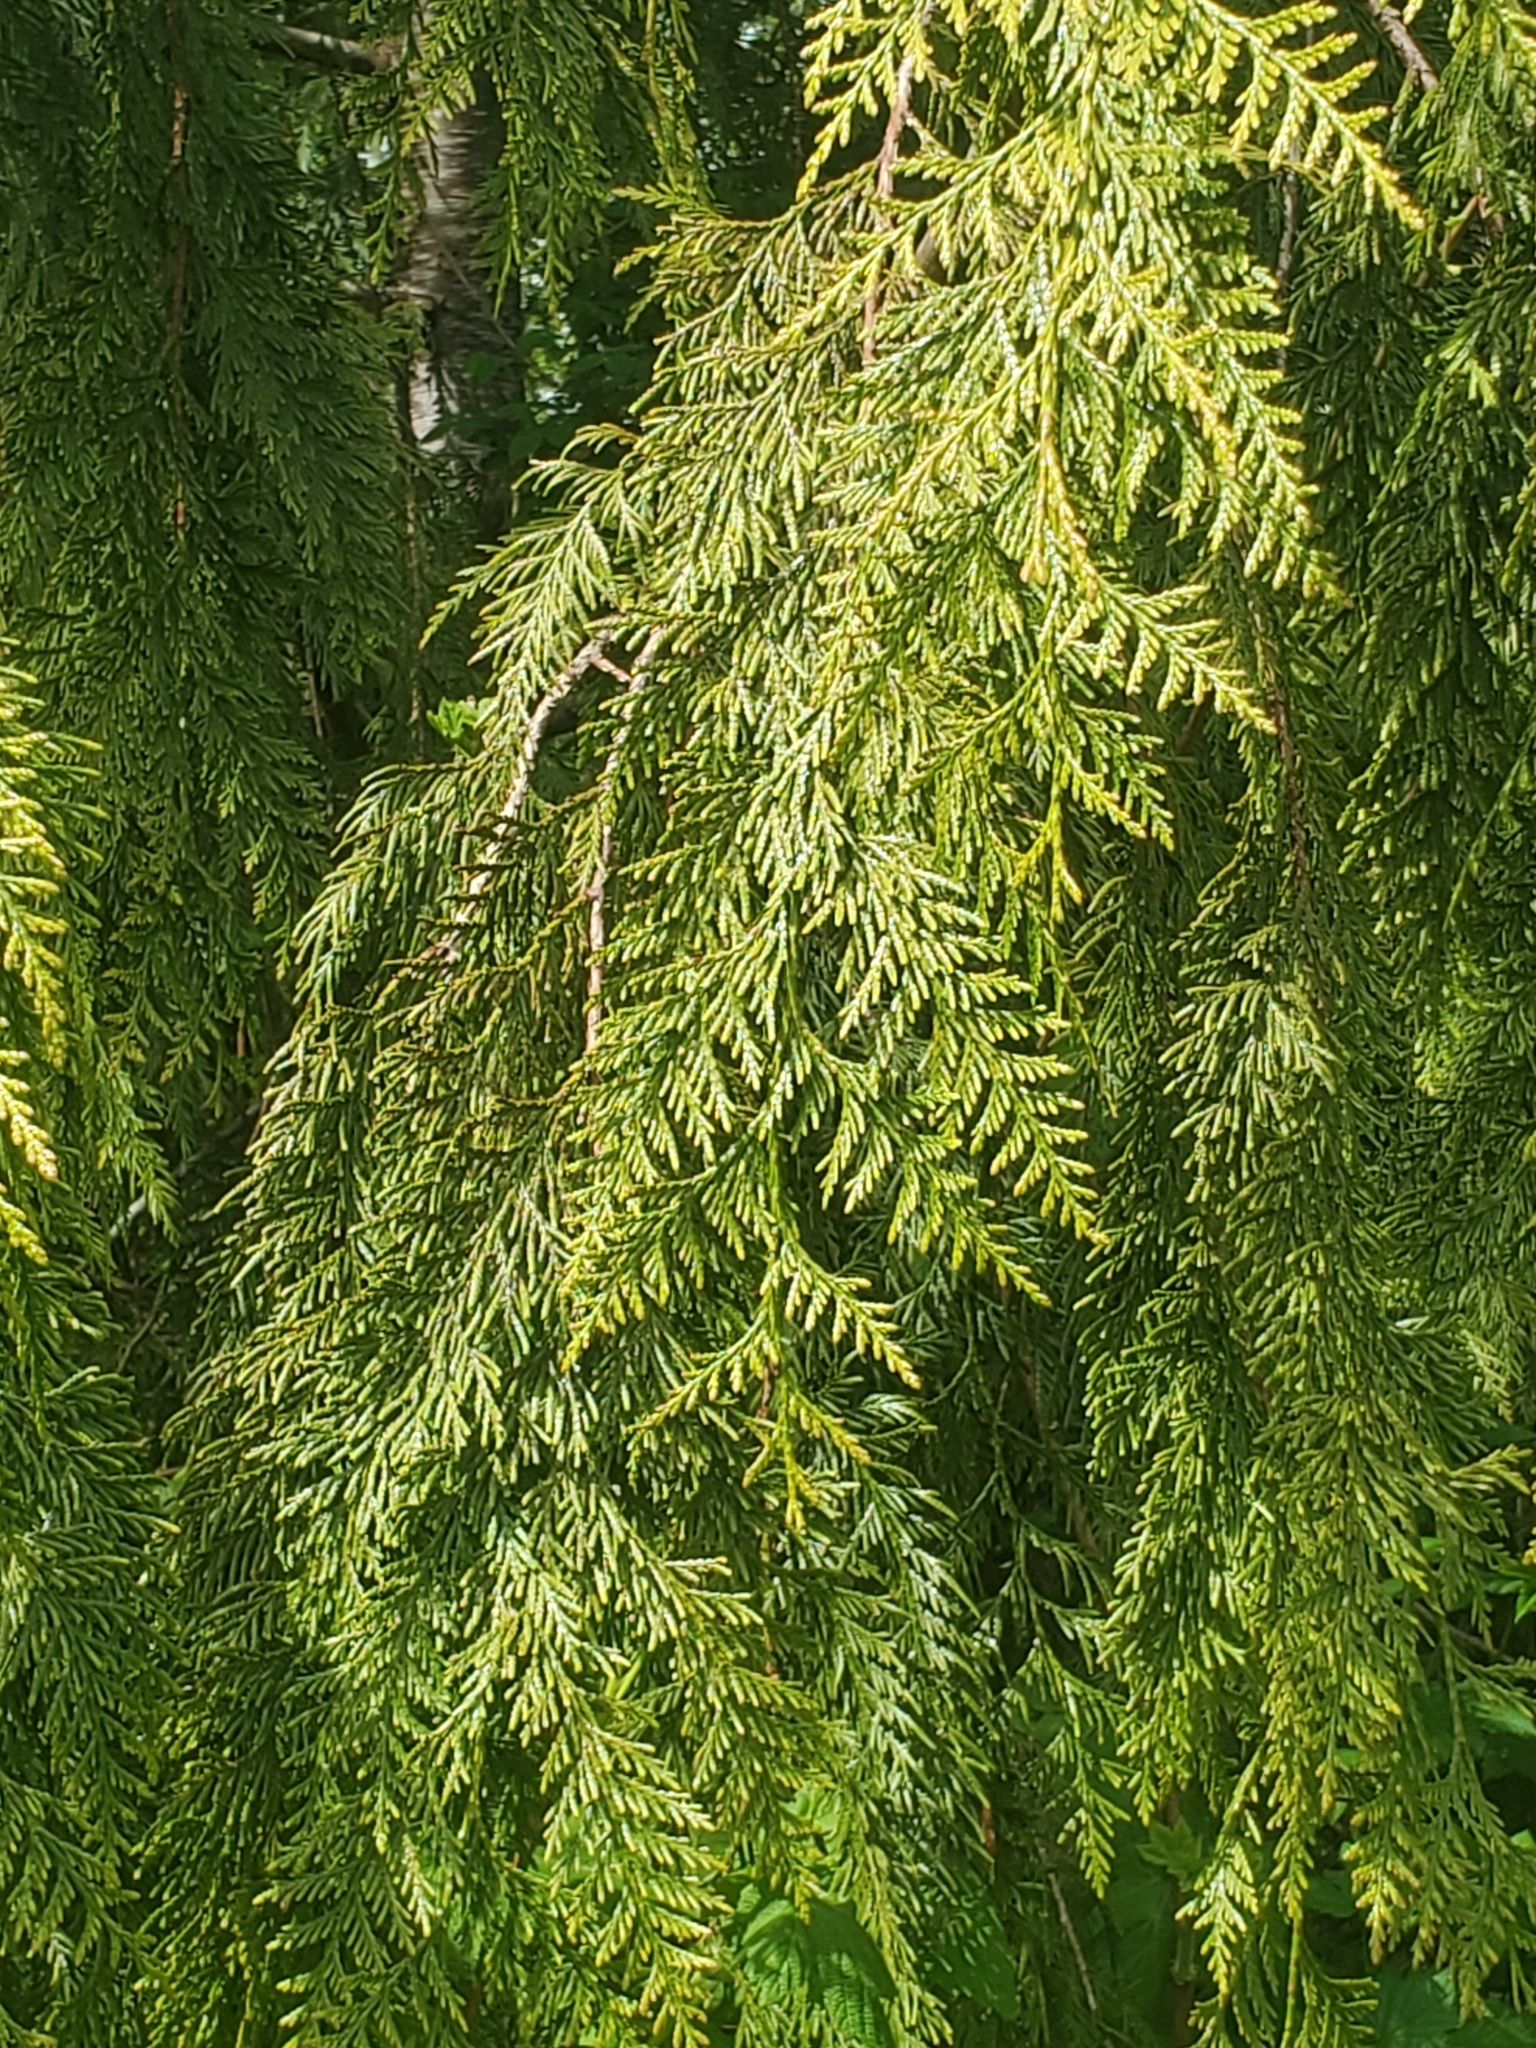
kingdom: Plantae
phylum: Tracheophyta
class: Pinopsida
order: Pinales
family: Cupressaceae
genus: Thuja
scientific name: Thuja plicata
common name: Western red-cedar
